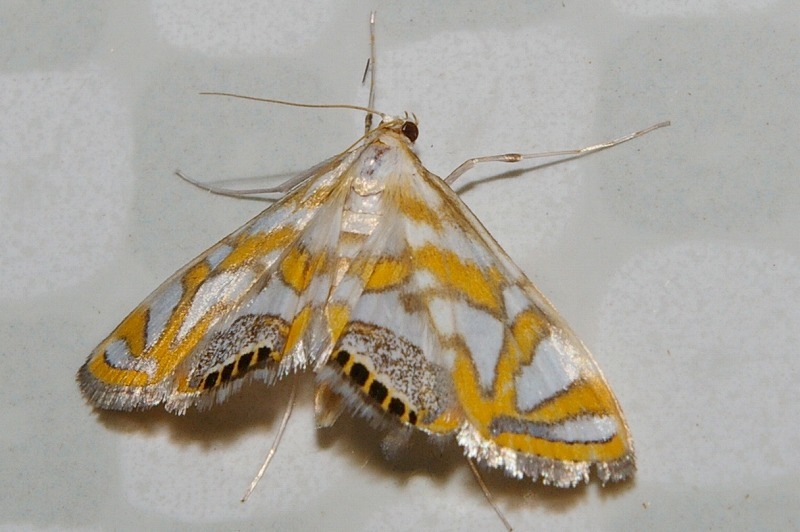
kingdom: Animalia
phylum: Arthropoda
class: Insecta
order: Lepidoptera
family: Crambidae
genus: Potamomusa
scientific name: Potamomusa midas
